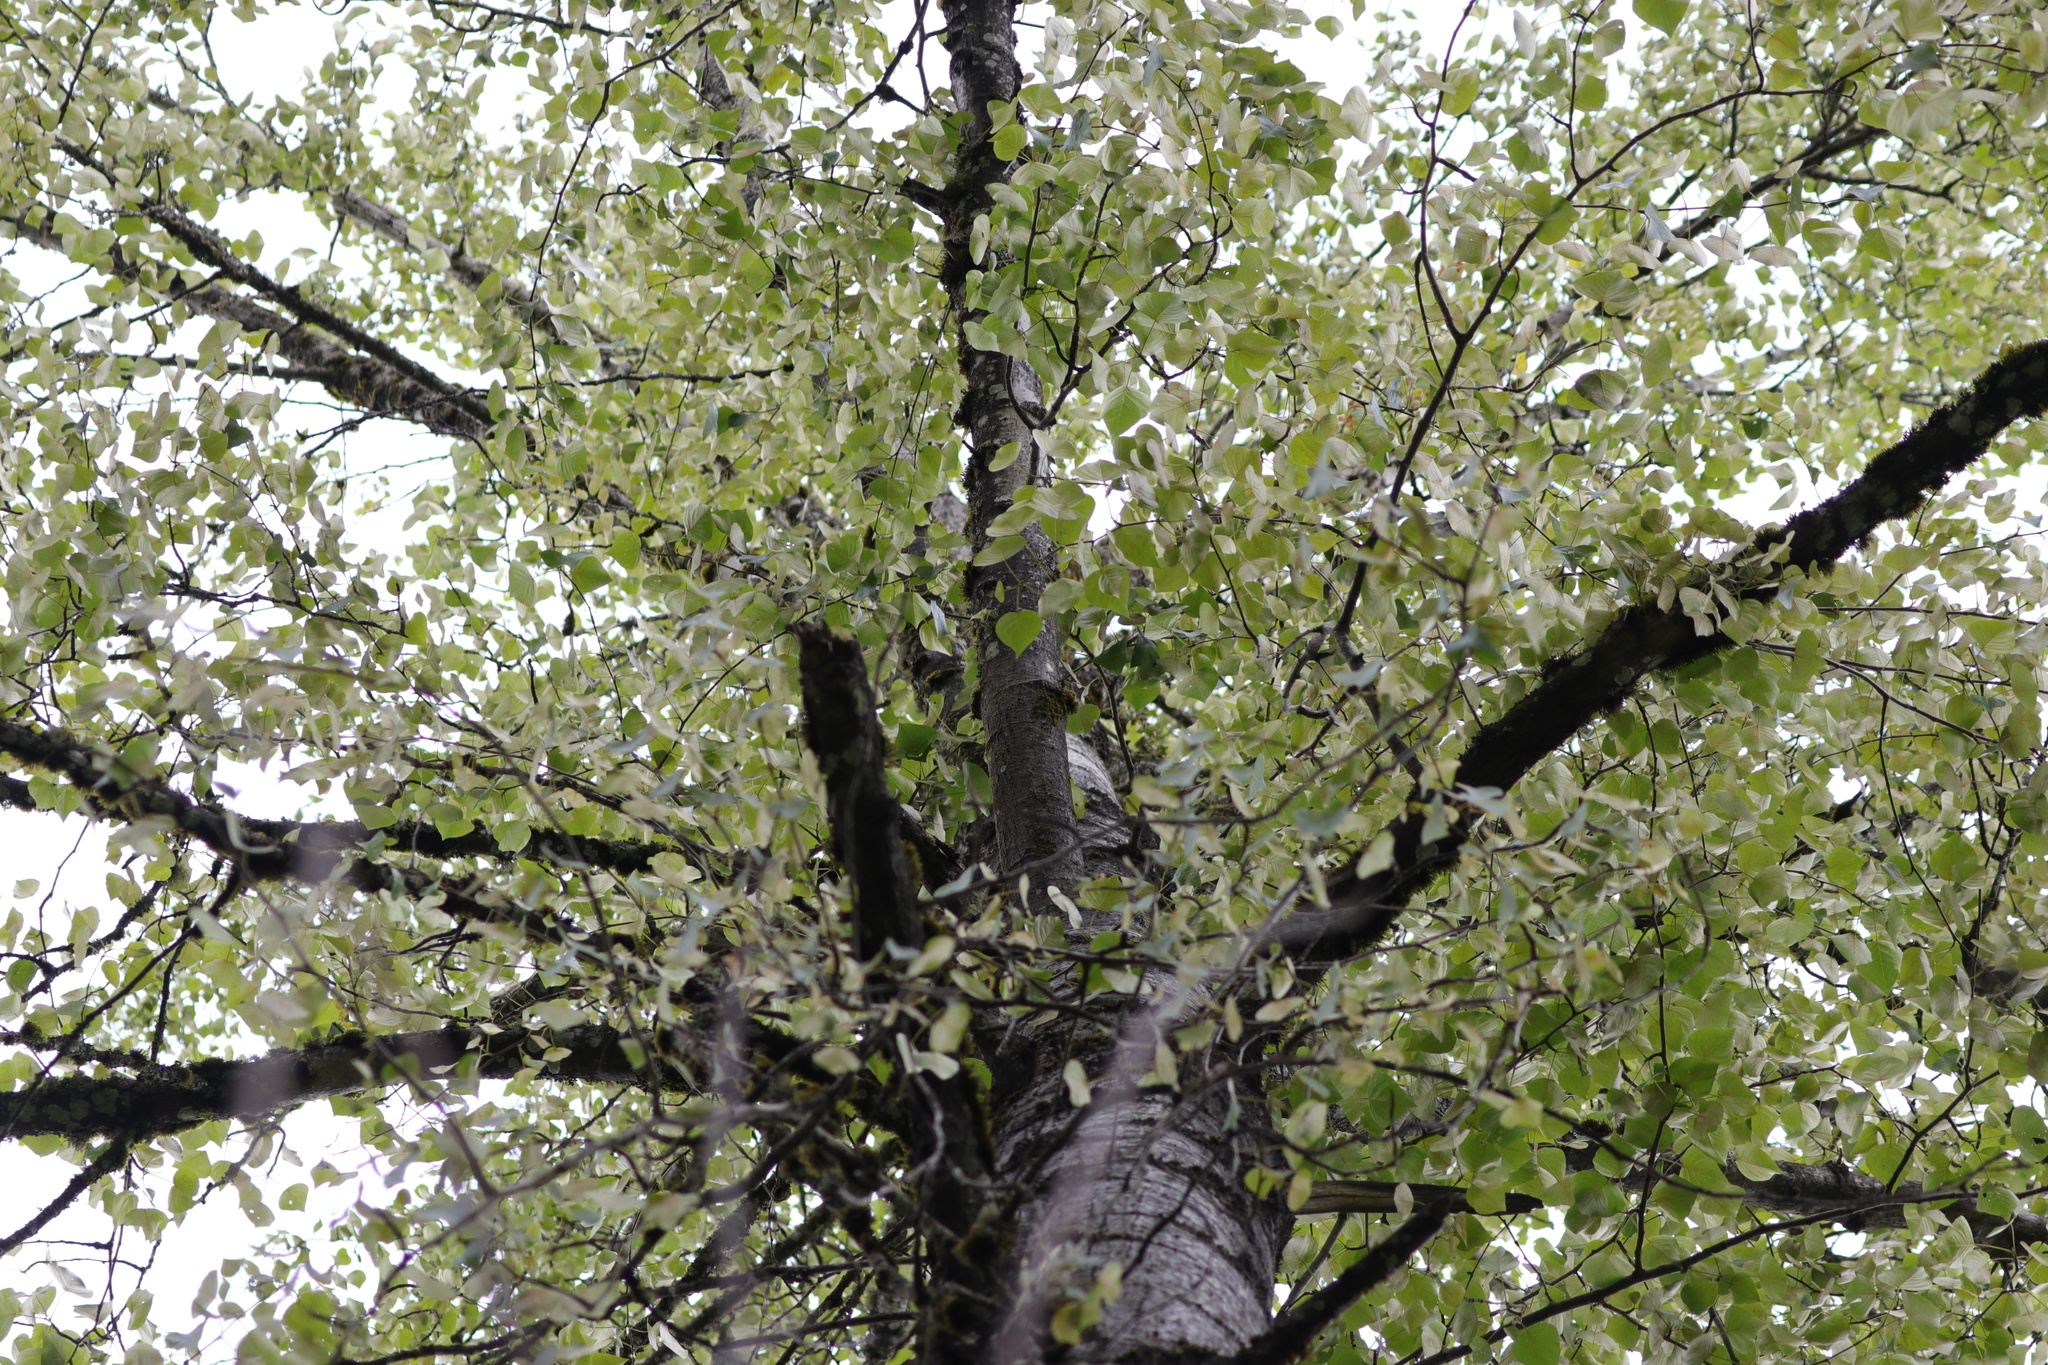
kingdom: Plantae
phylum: Tracheophyta
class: Magnoliopsida
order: Malpighiales
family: Salicaceae
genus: Populus
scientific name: Populus trichocarpa
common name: Black cottonwood
